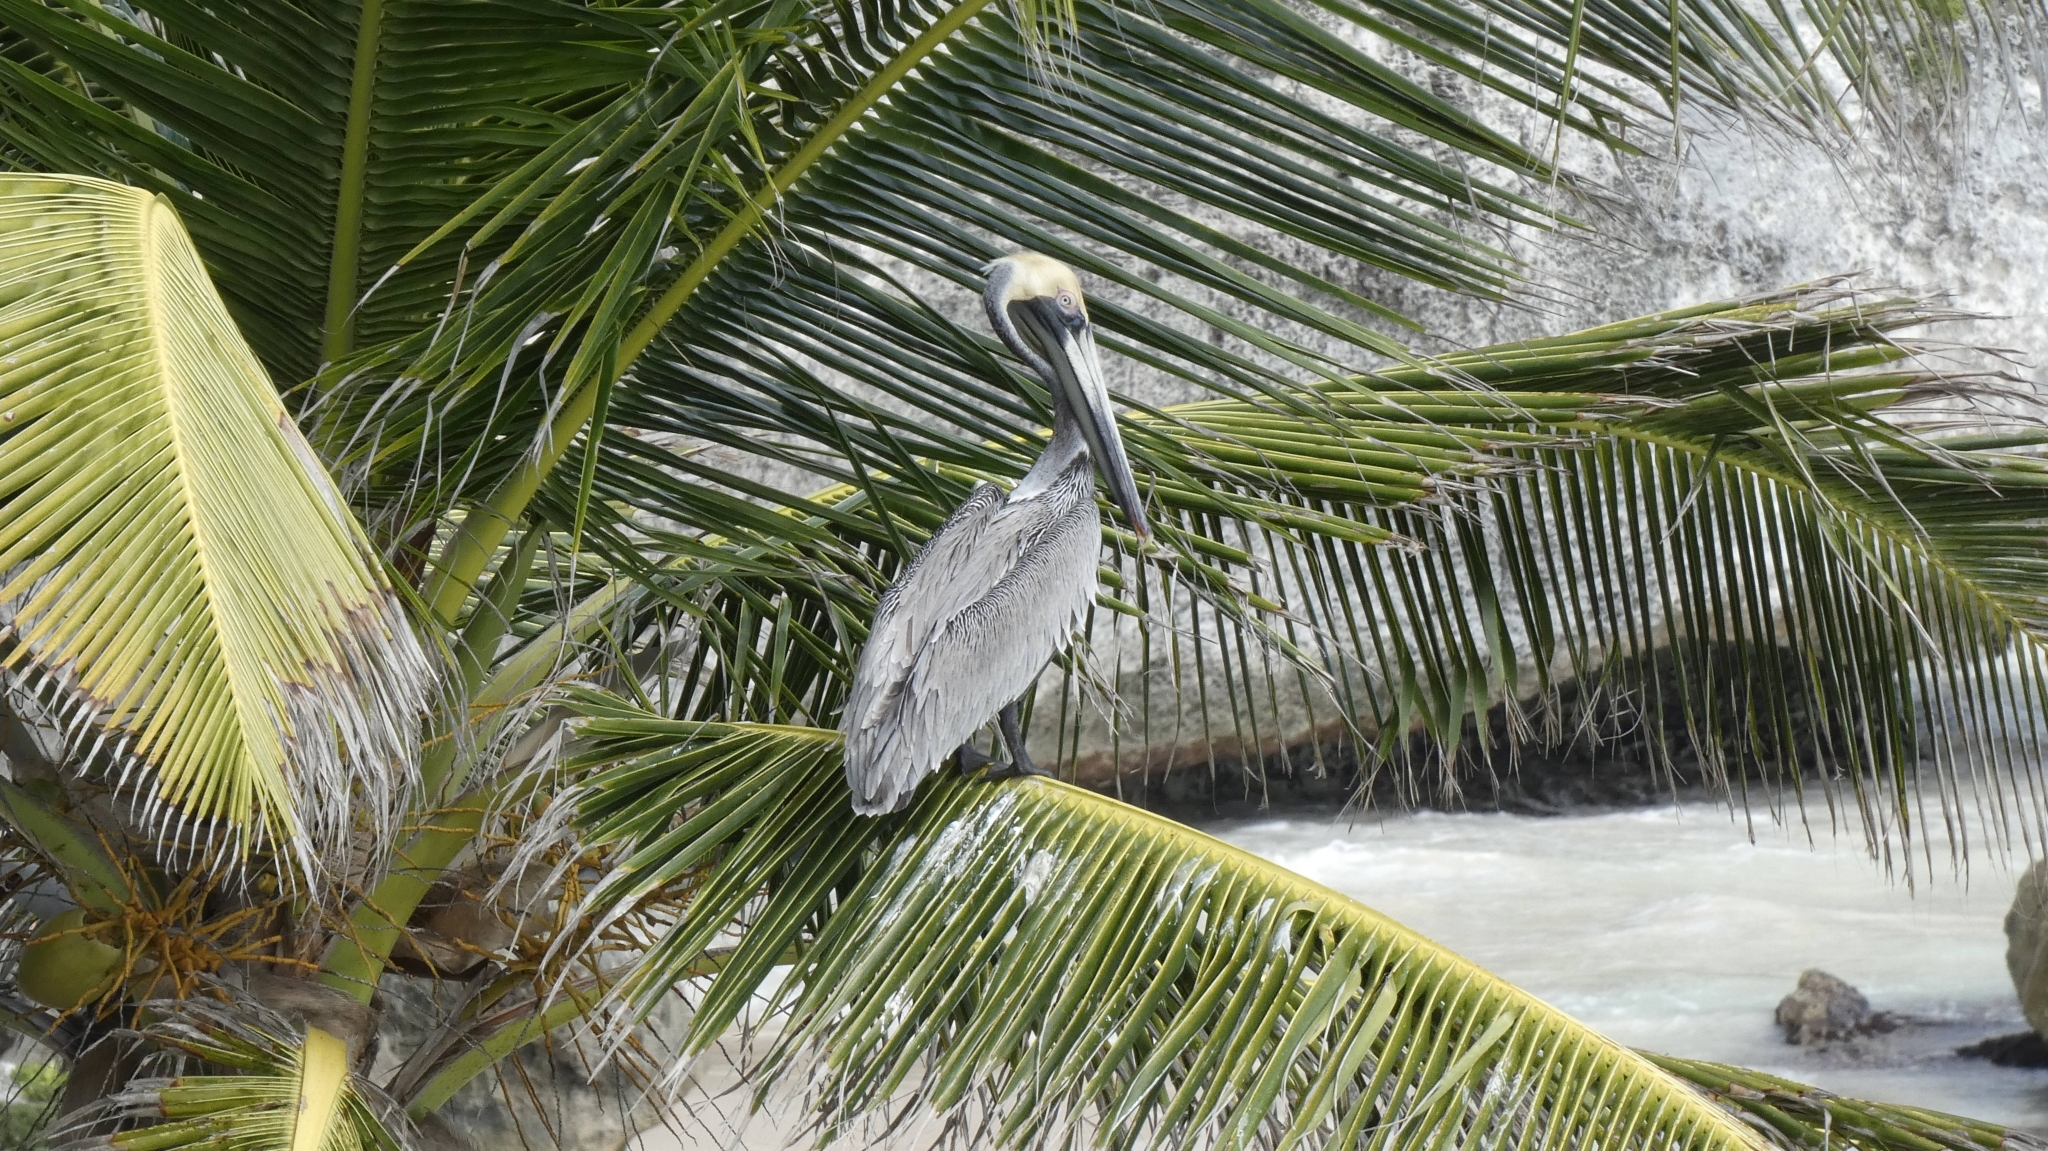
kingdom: Animalia
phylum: Chordata
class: Aves
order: Pelecaniformes
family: Pelecanidae
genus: Pelecanus
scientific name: Pelecanus occidentalis
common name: Brown pelican
